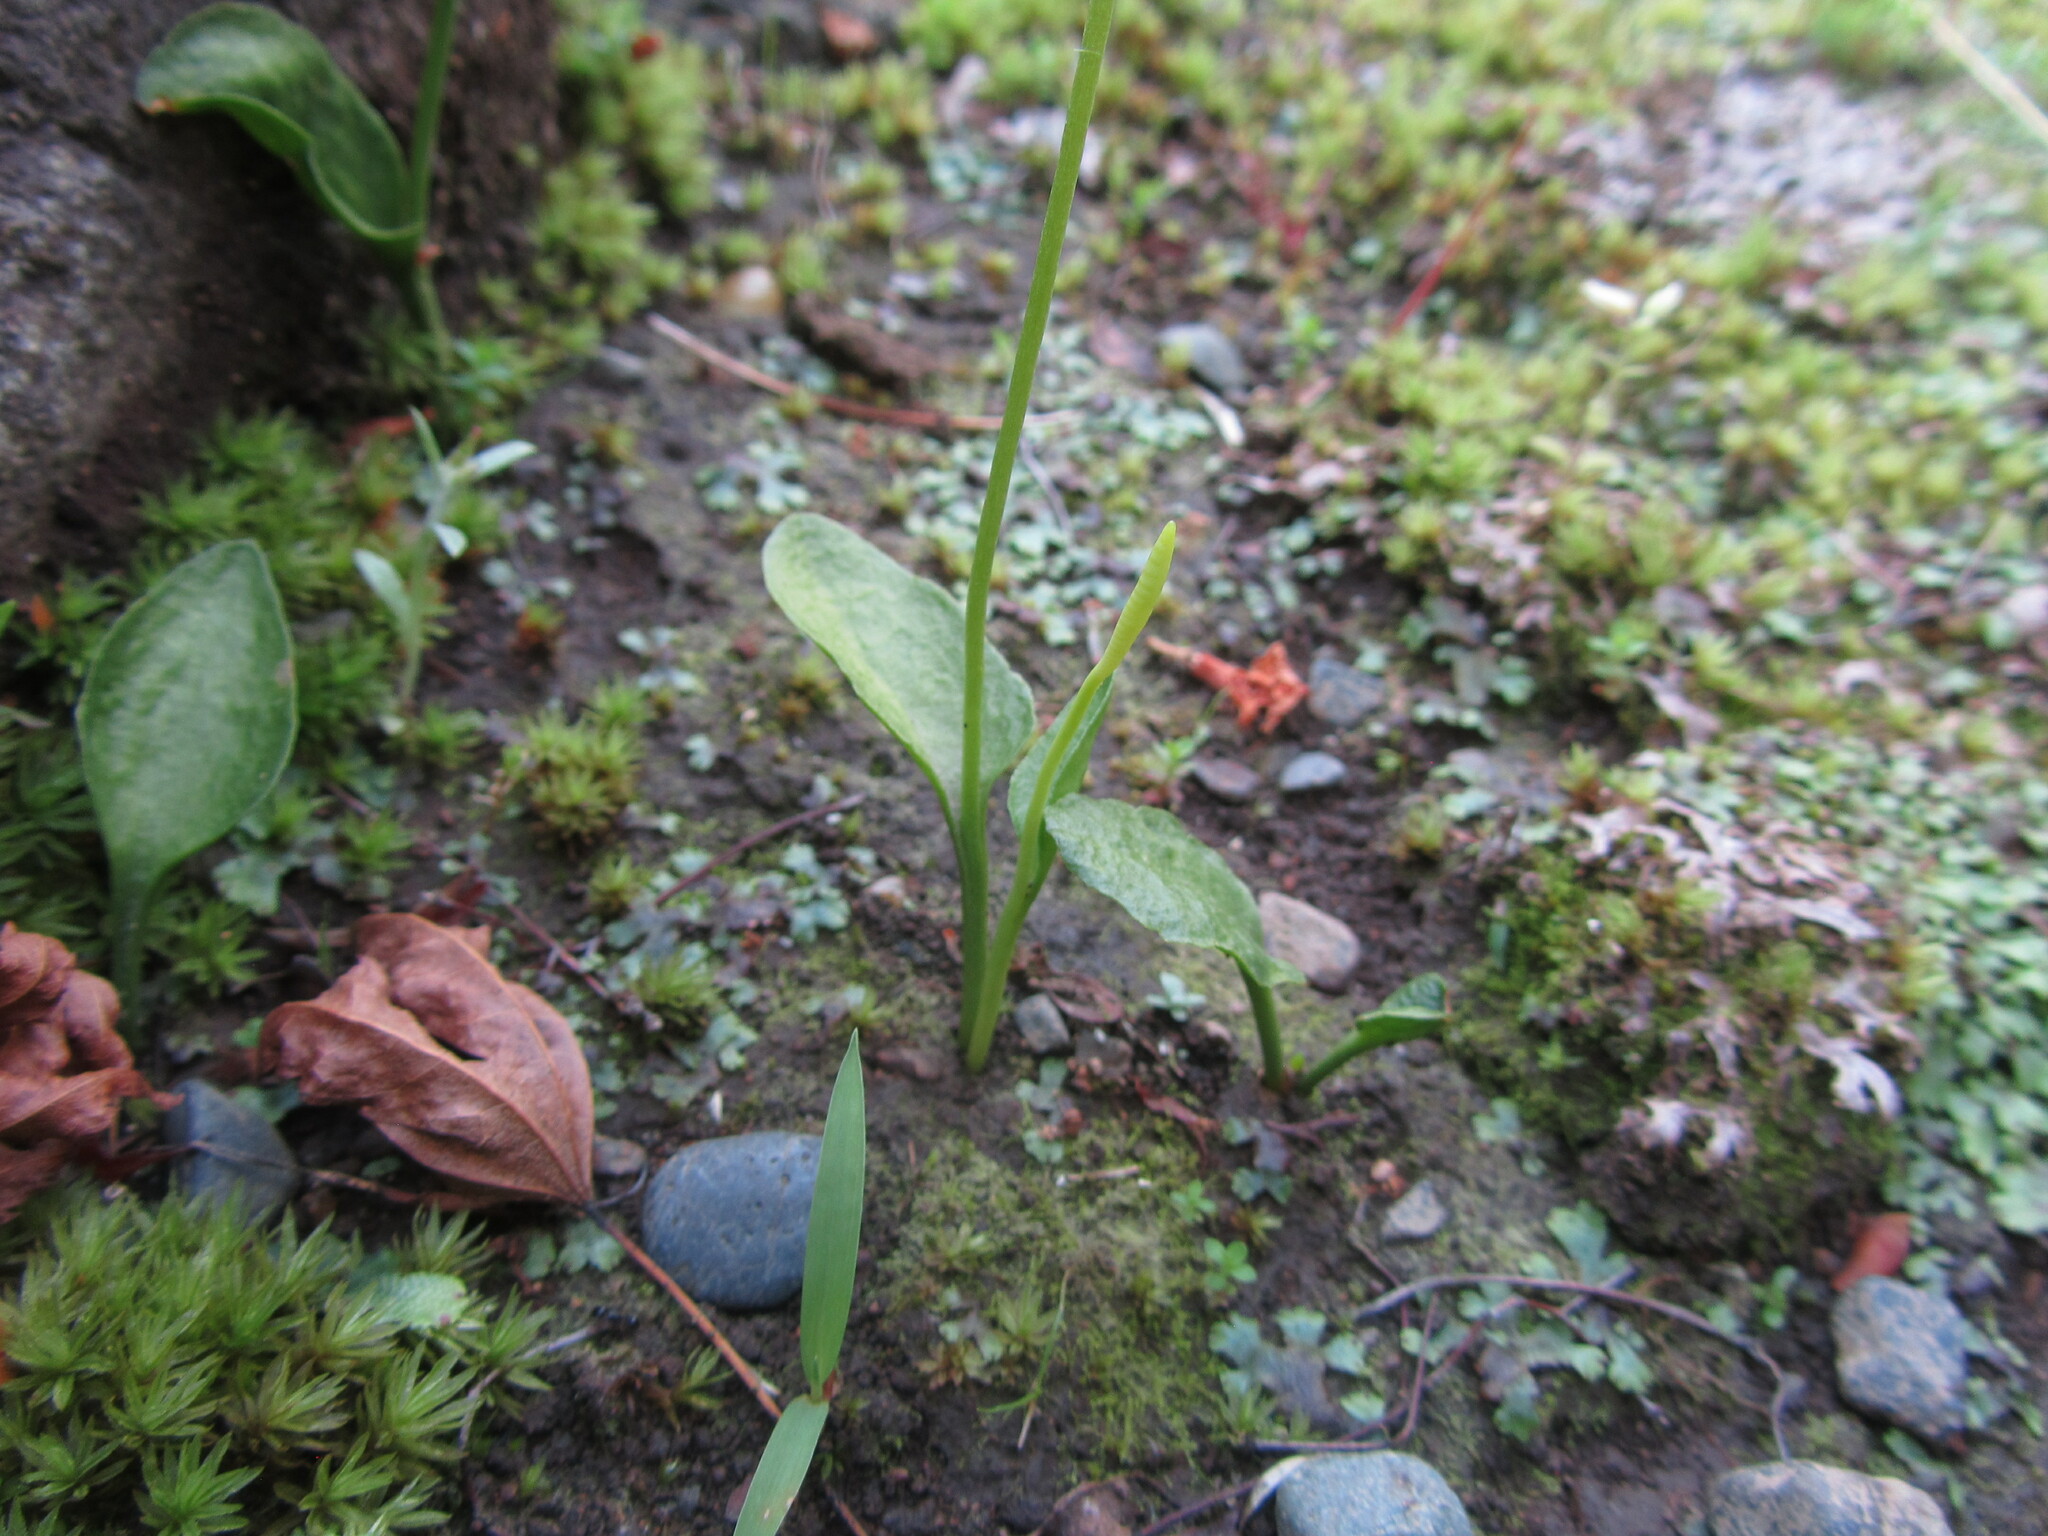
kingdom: Plantae
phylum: Tracheophyta
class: Polypodiopsida
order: Ophioglossales
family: Ophioglossaceae
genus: Ophioglossum
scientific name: Ophioglossum petiolatum
